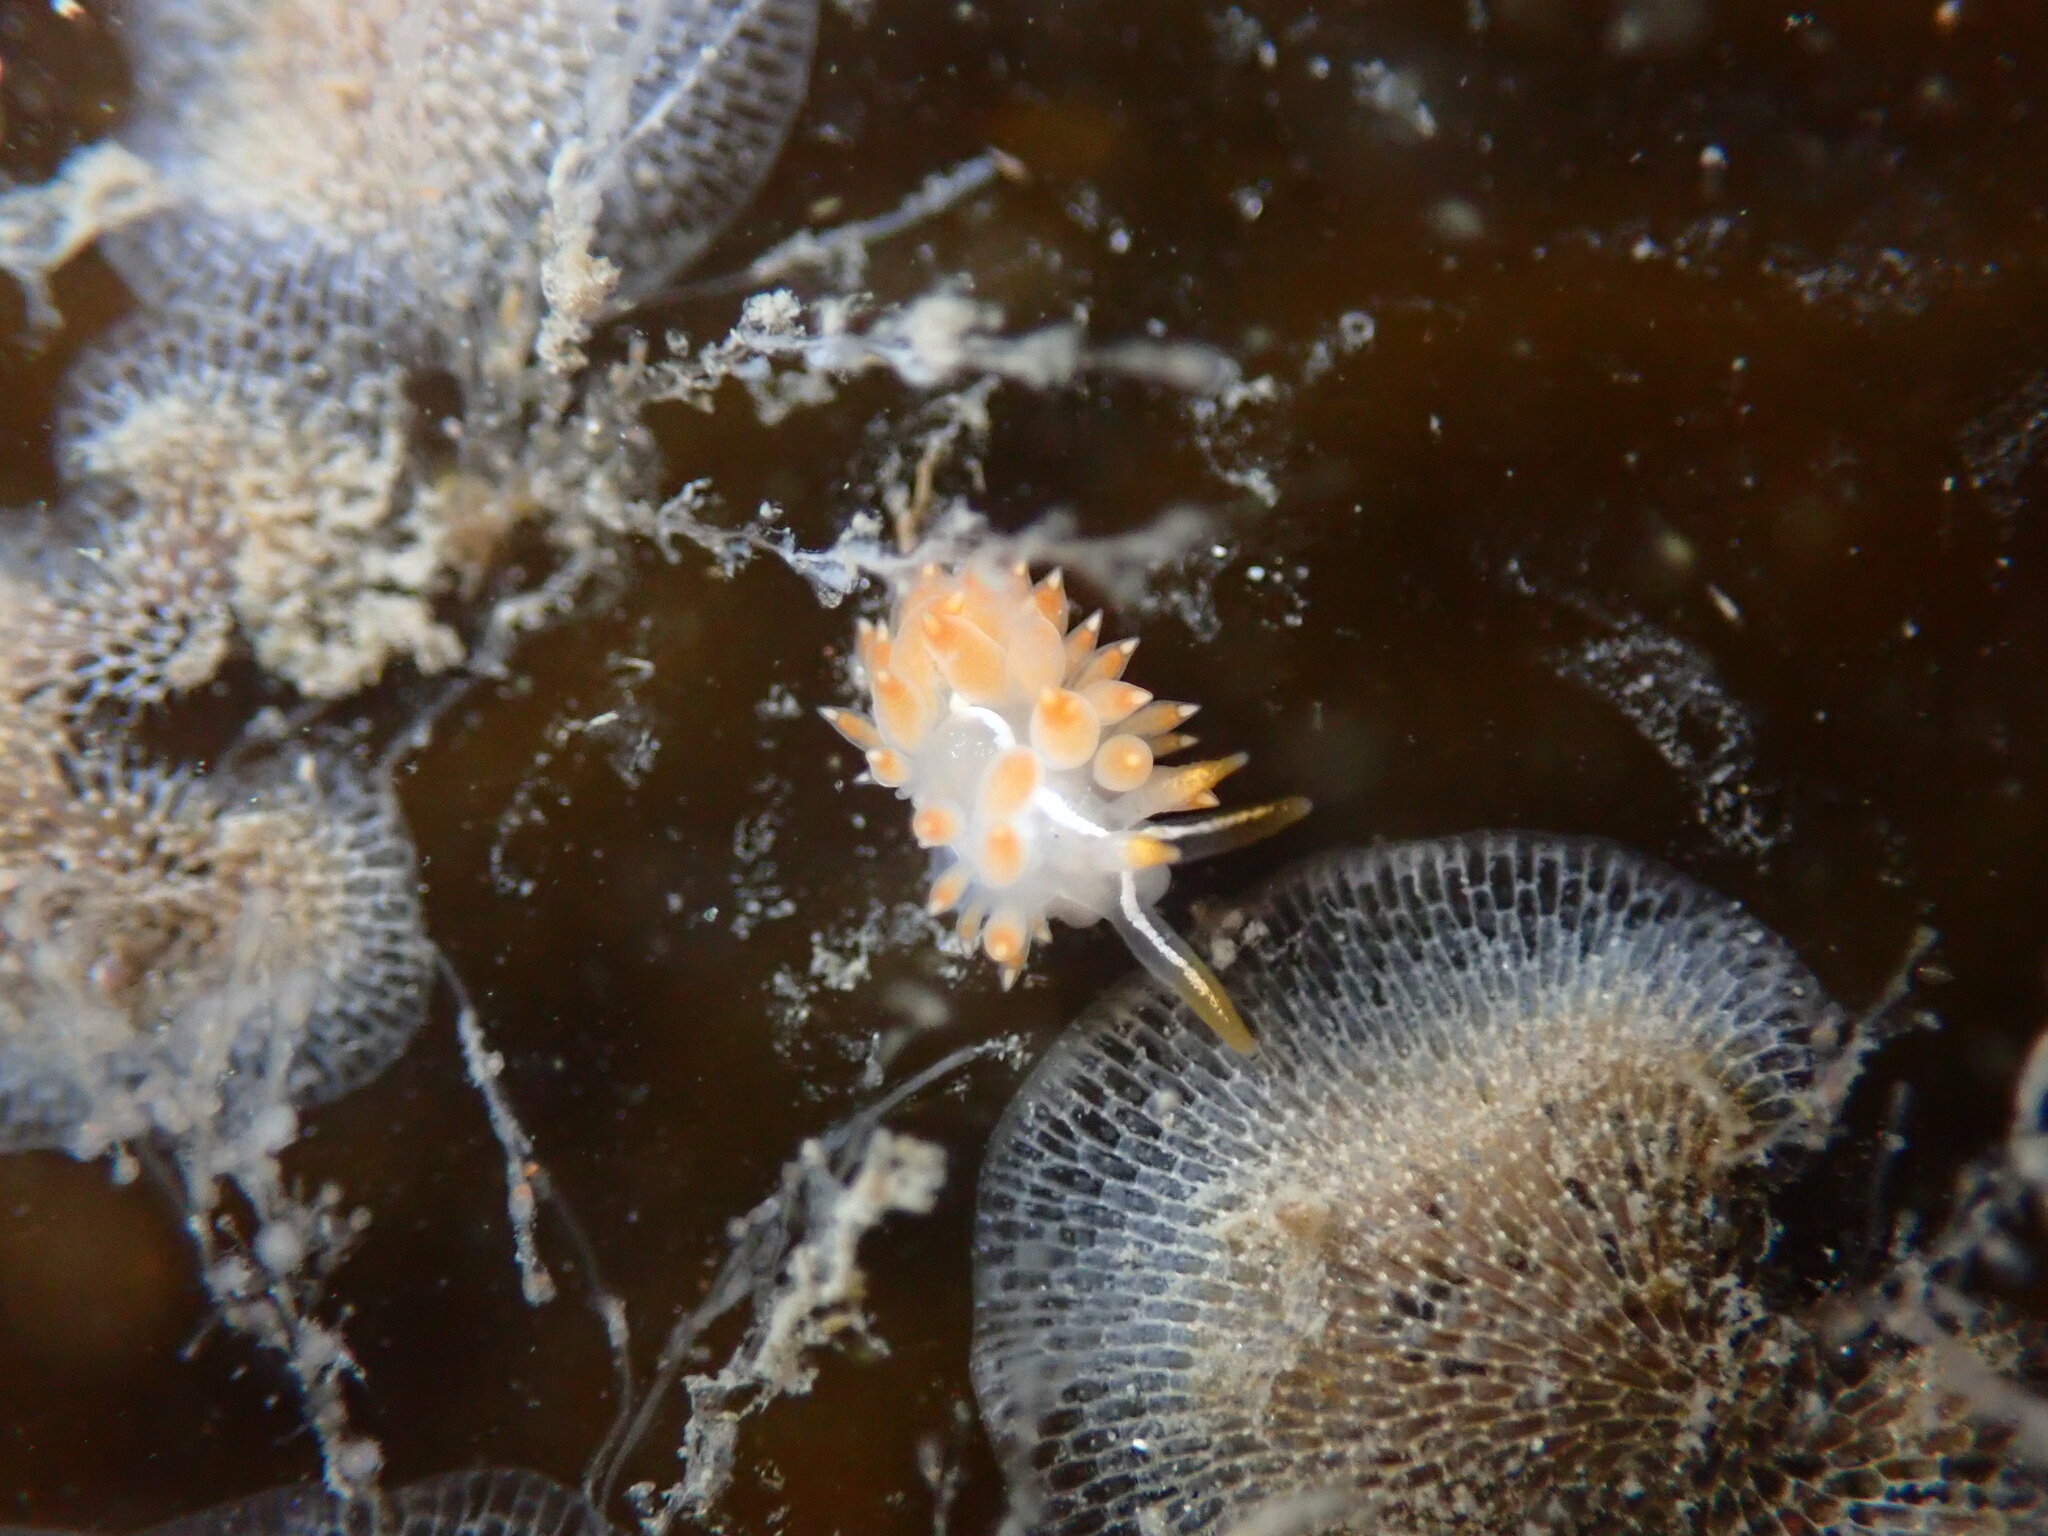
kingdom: Animalia
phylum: Mollusca
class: Gastropoda
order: Nudibranchia
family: Coryphellidae
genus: Coryphella
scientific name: Coryphella trilineata
